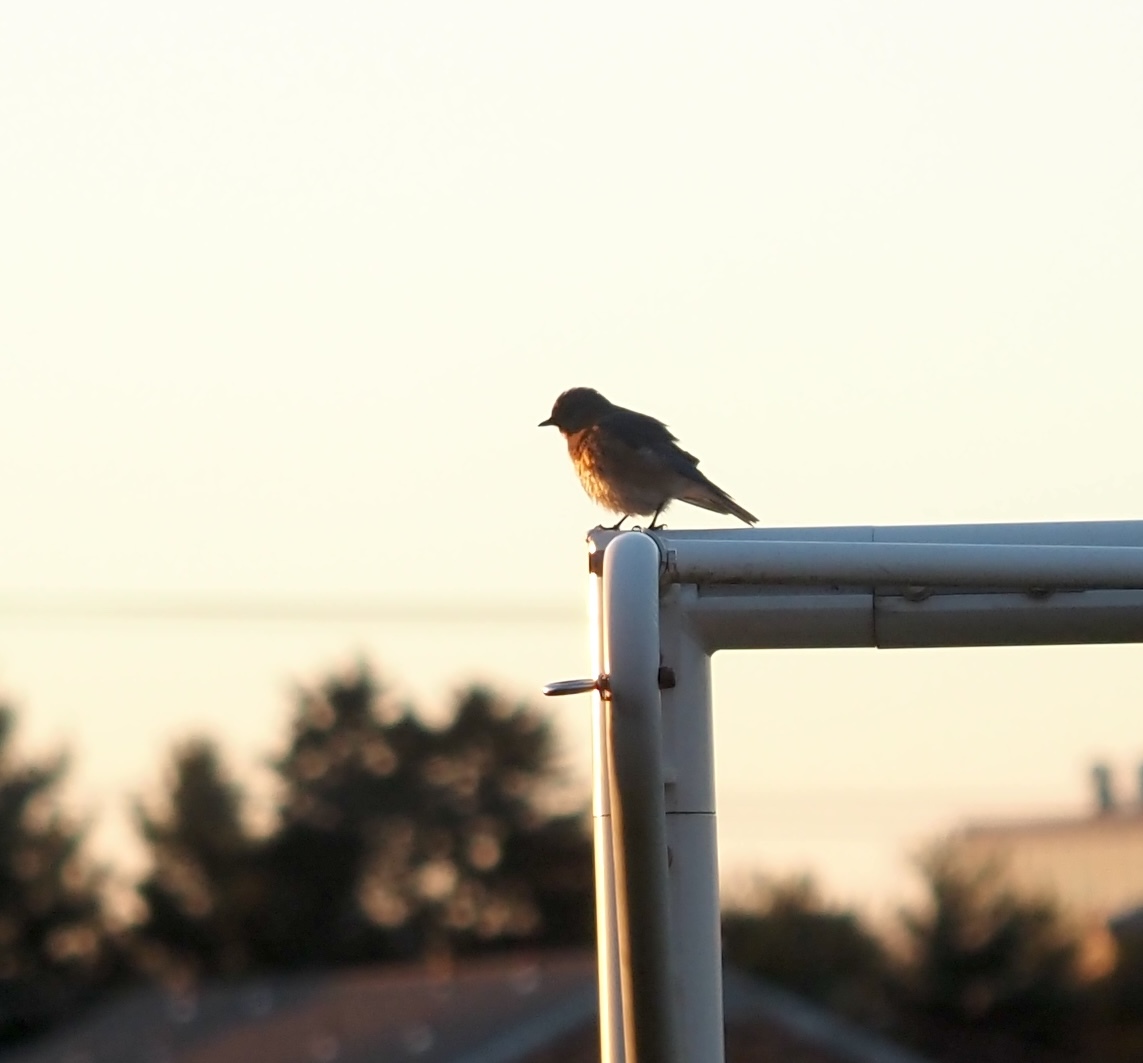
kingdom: Animalia
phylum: Chordata
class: Aves
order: Passeriformes
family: Turdidae
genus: Sialia
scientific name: Sialia sialis
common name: Eastern bluebird
